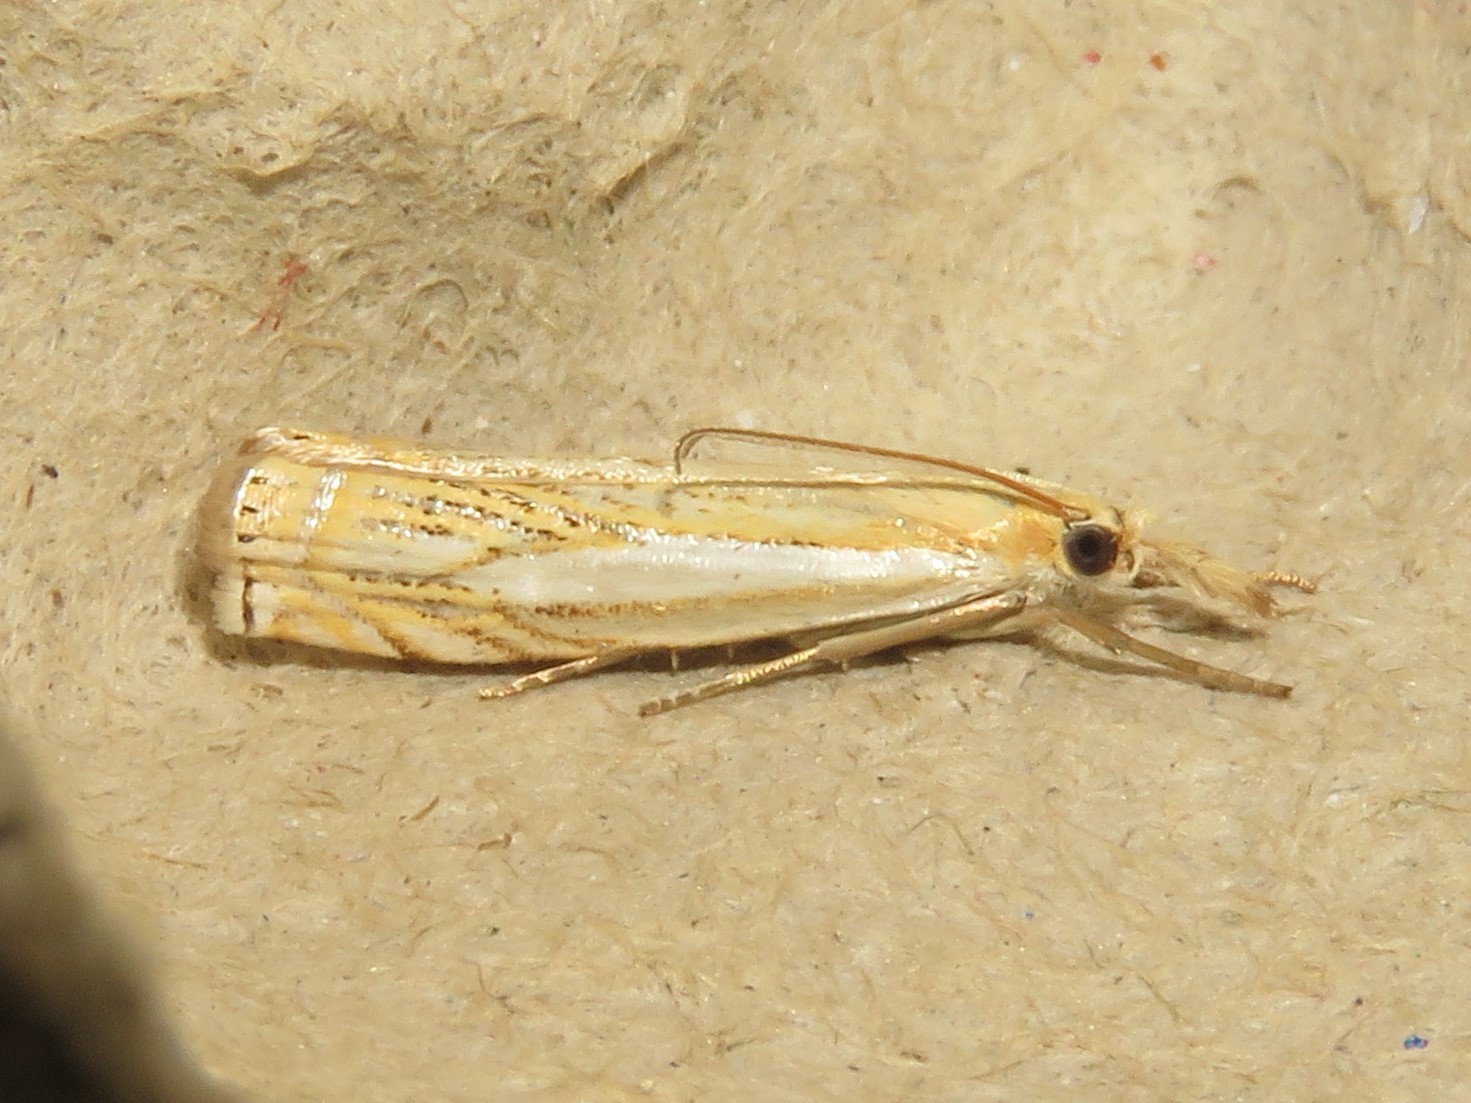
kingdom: Animalia
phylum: Arthropoda
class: Insecta
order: Lepidoptera
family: Crambidae
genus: Crambus
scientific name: Crambus saltuellus
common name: Pasture grass-veneer
